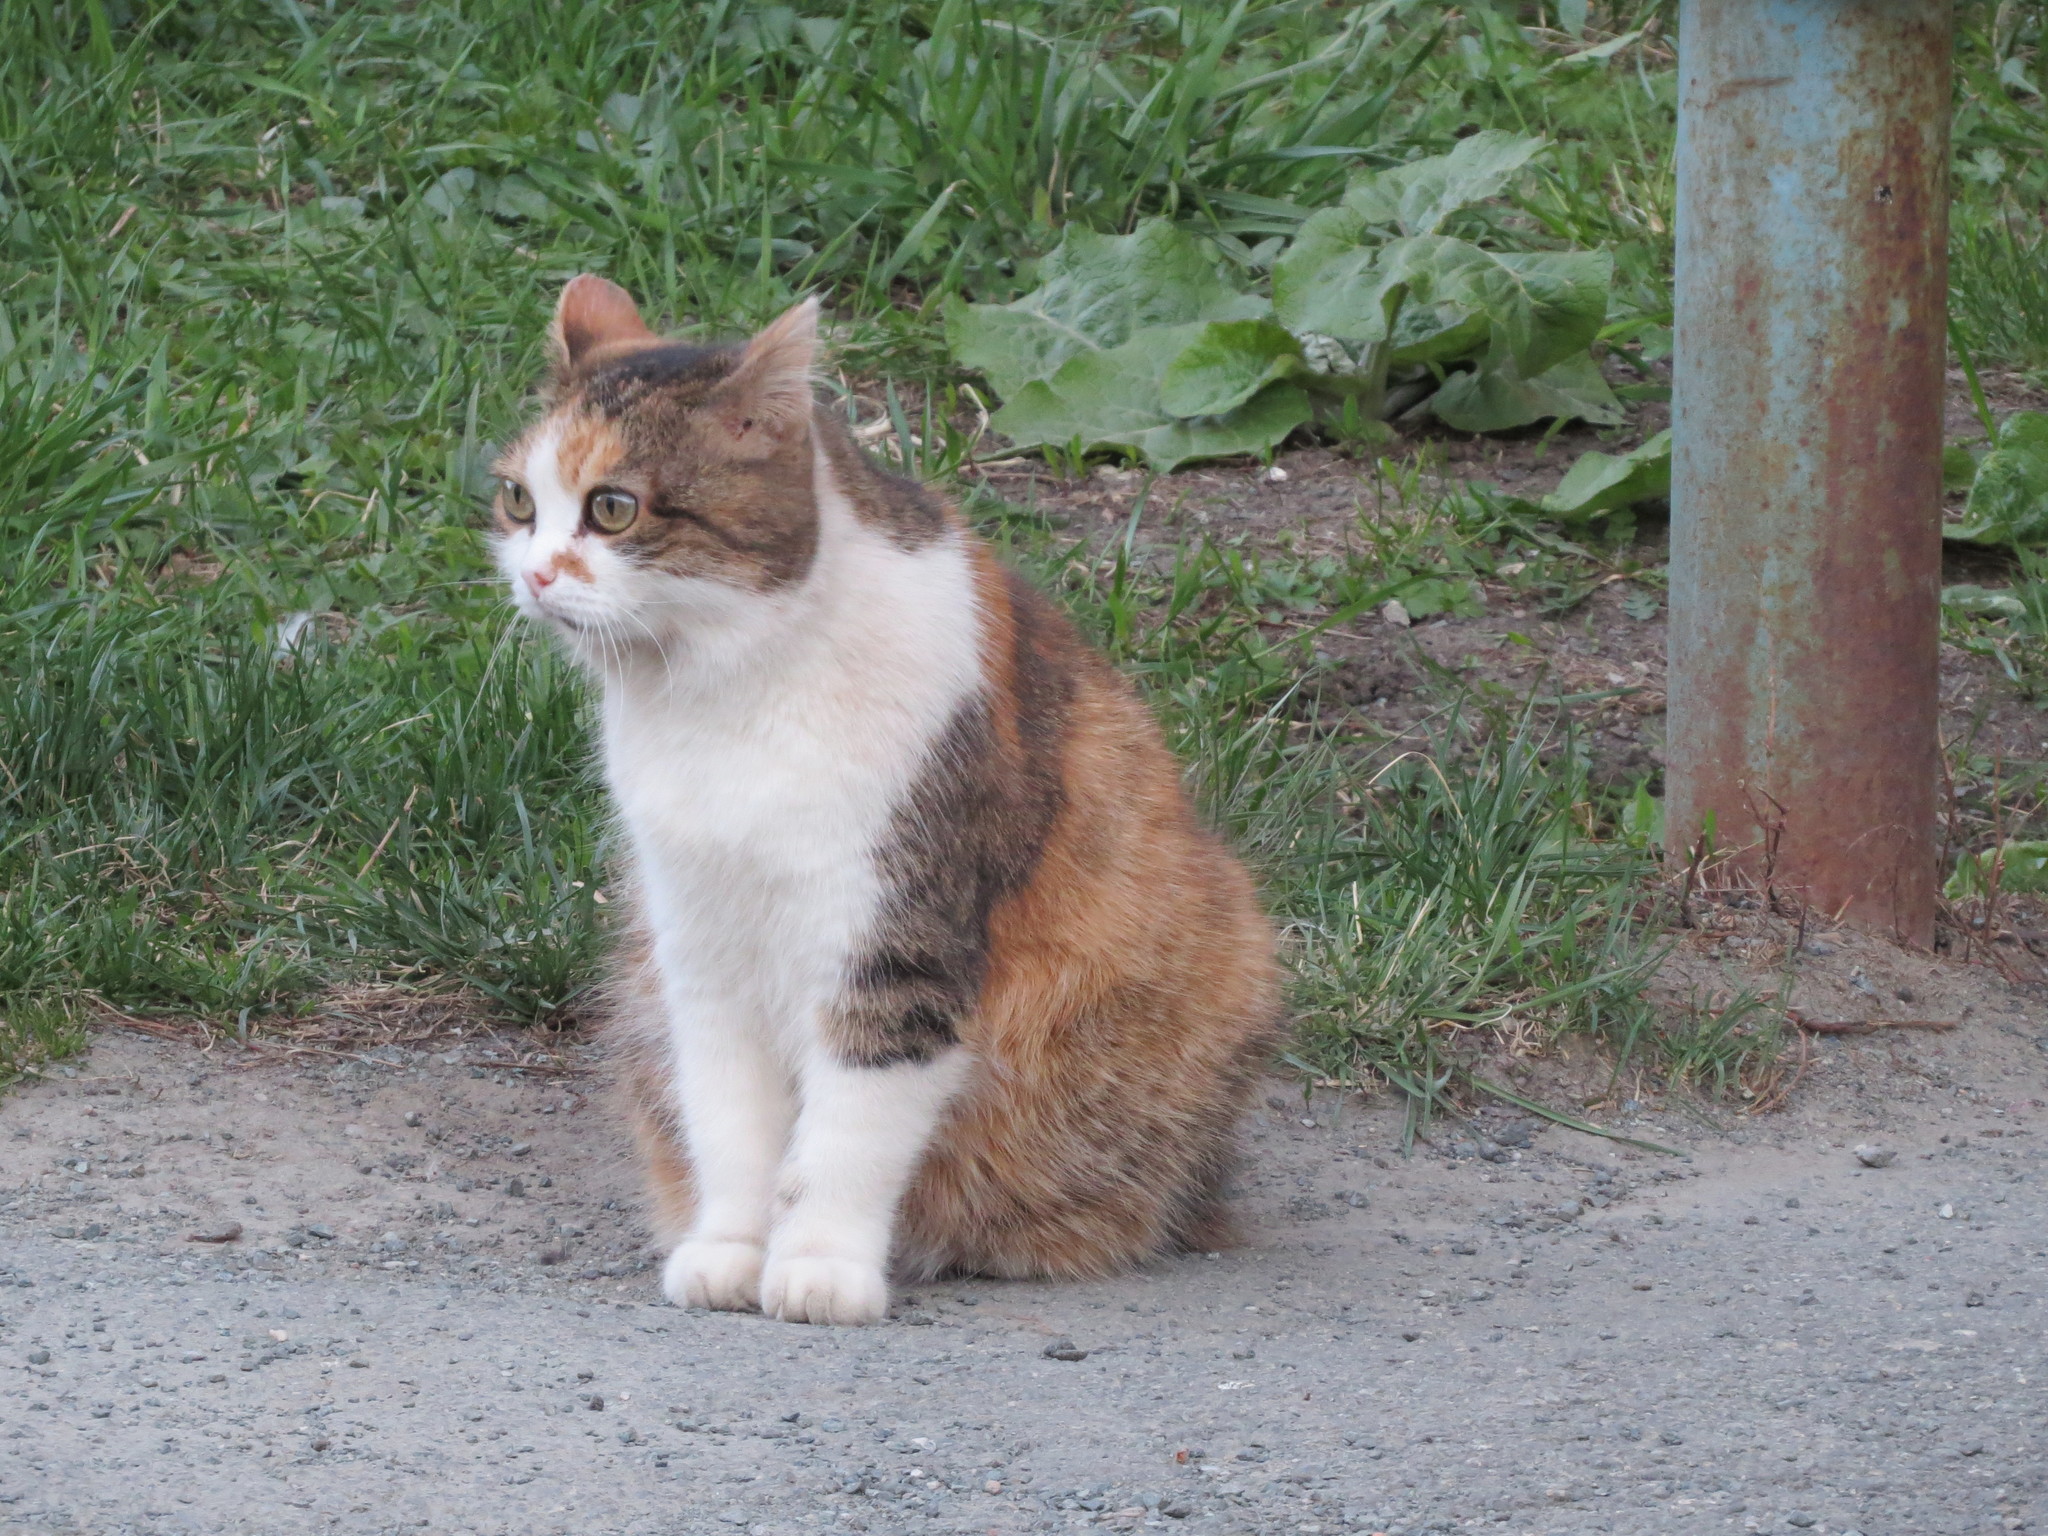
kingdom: Animalia
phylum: Chordata
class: Mammalia
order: Carnivora
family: Felidae
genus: Felis
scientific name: Felis catus
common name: Domestic cat
